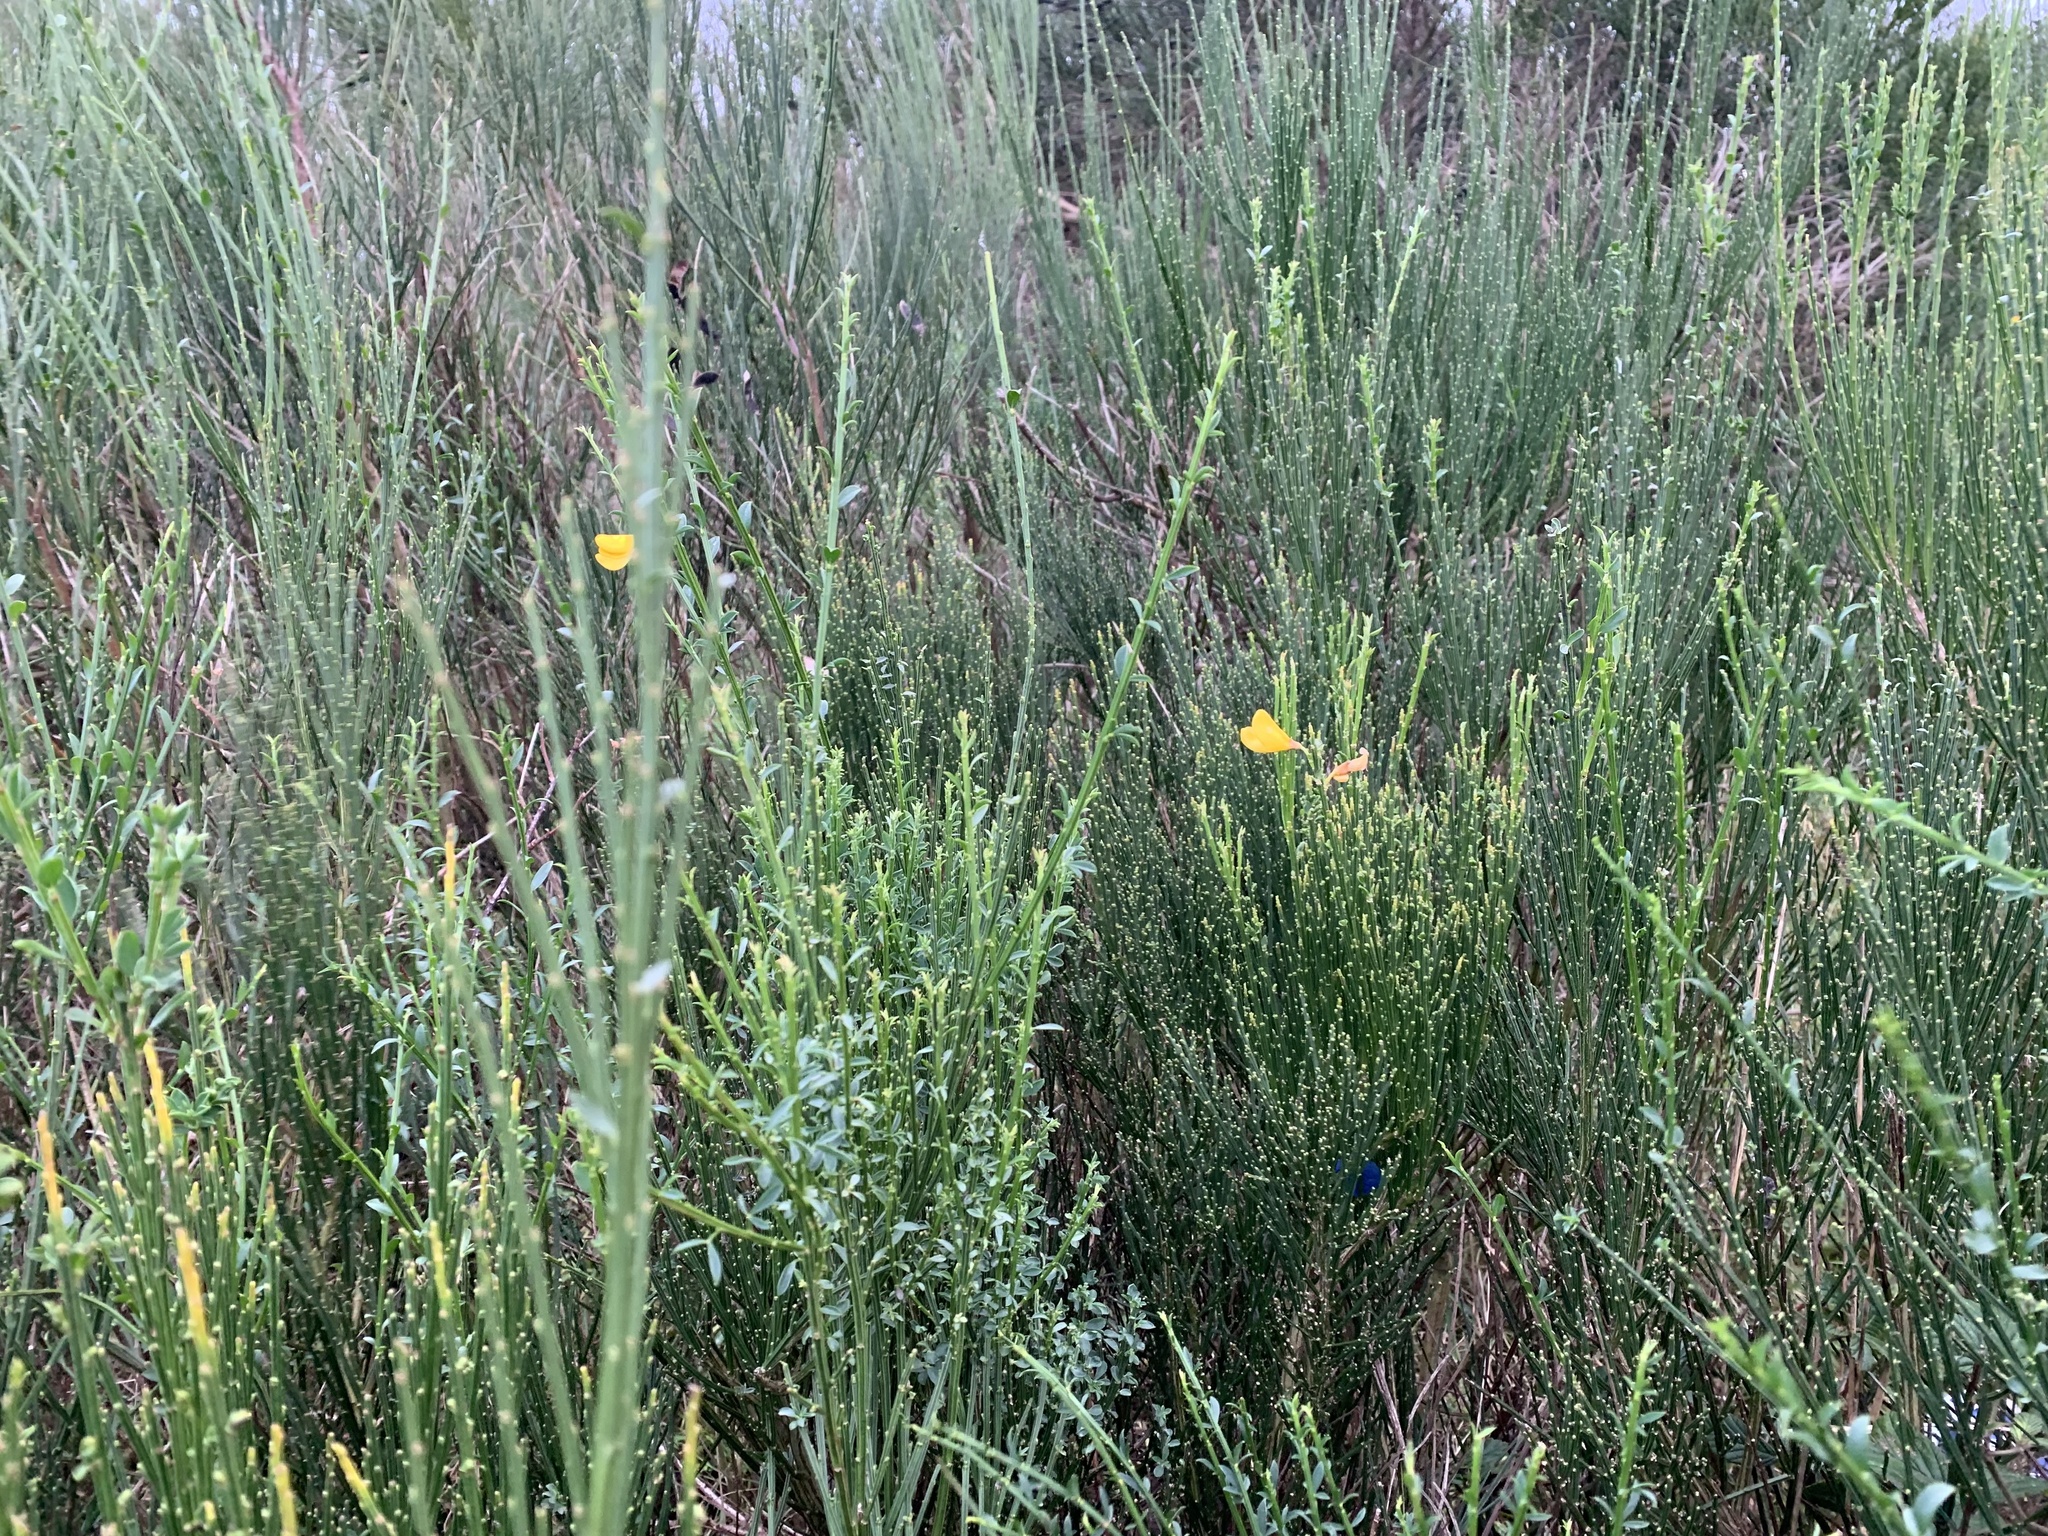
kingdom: Plantae
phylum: Tracheophyta
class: Magnoliopsida
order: Fabales
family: Fabaceae
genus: Cytisus
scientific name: Cytisus scoparius
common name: Scotch broom
